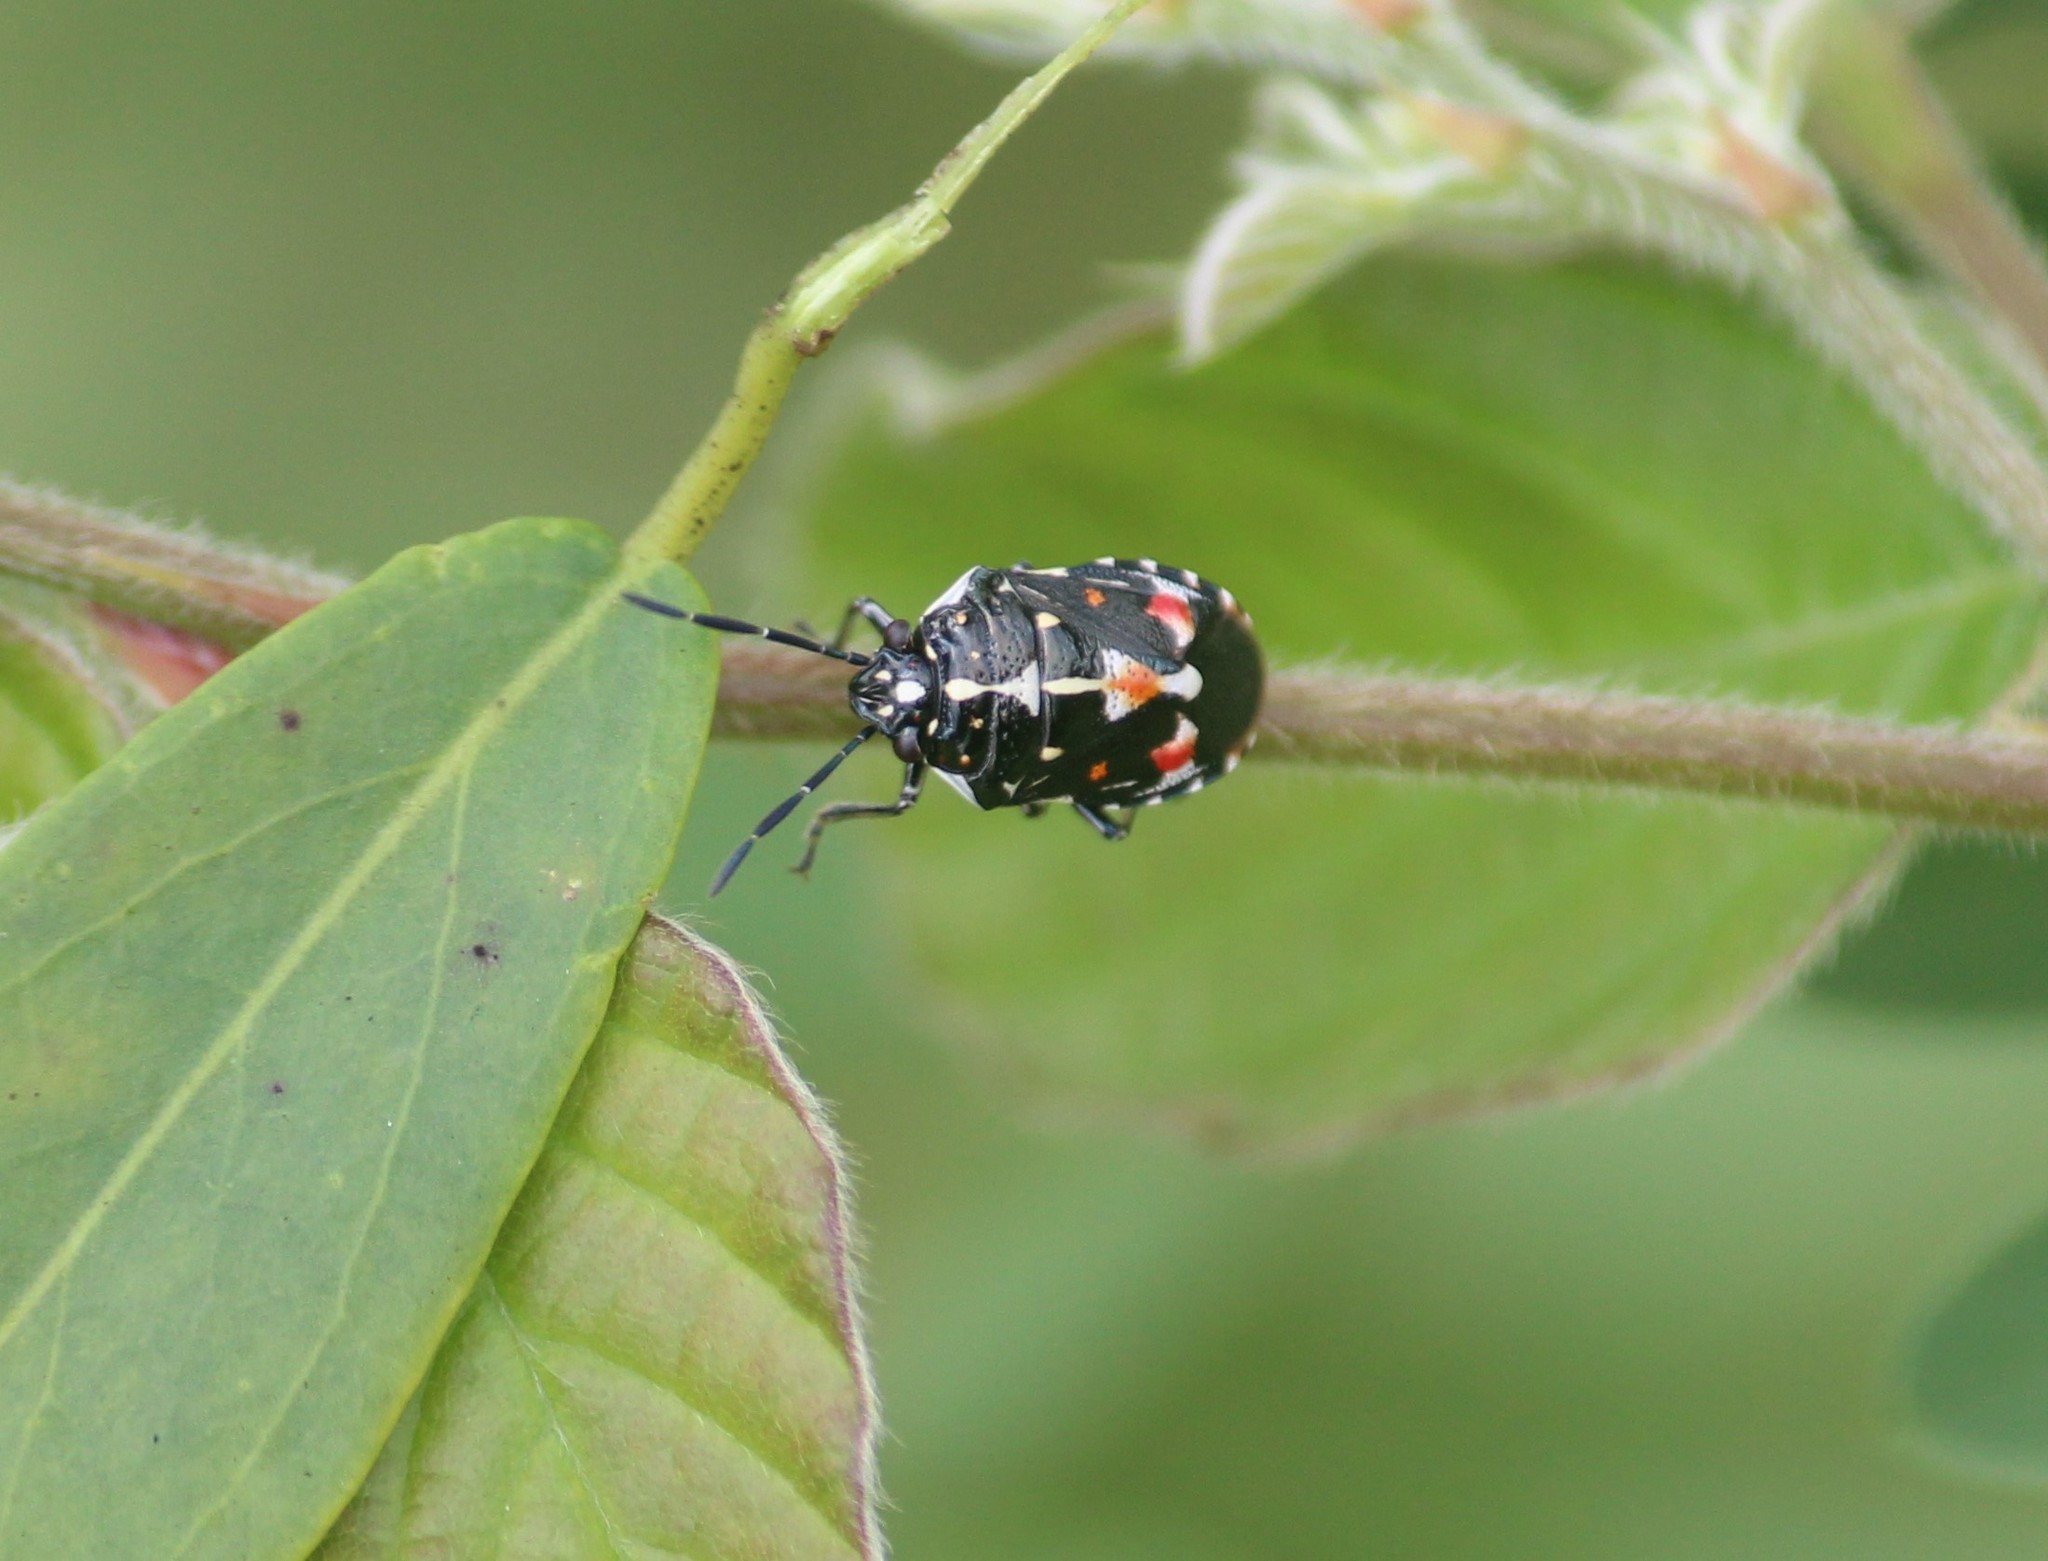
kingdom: Animalia
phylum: Arthropoda
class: Insecta
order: Hemiptera
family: Pentatomidae
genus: Stenozygum
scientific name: Stenozygum speciosum
